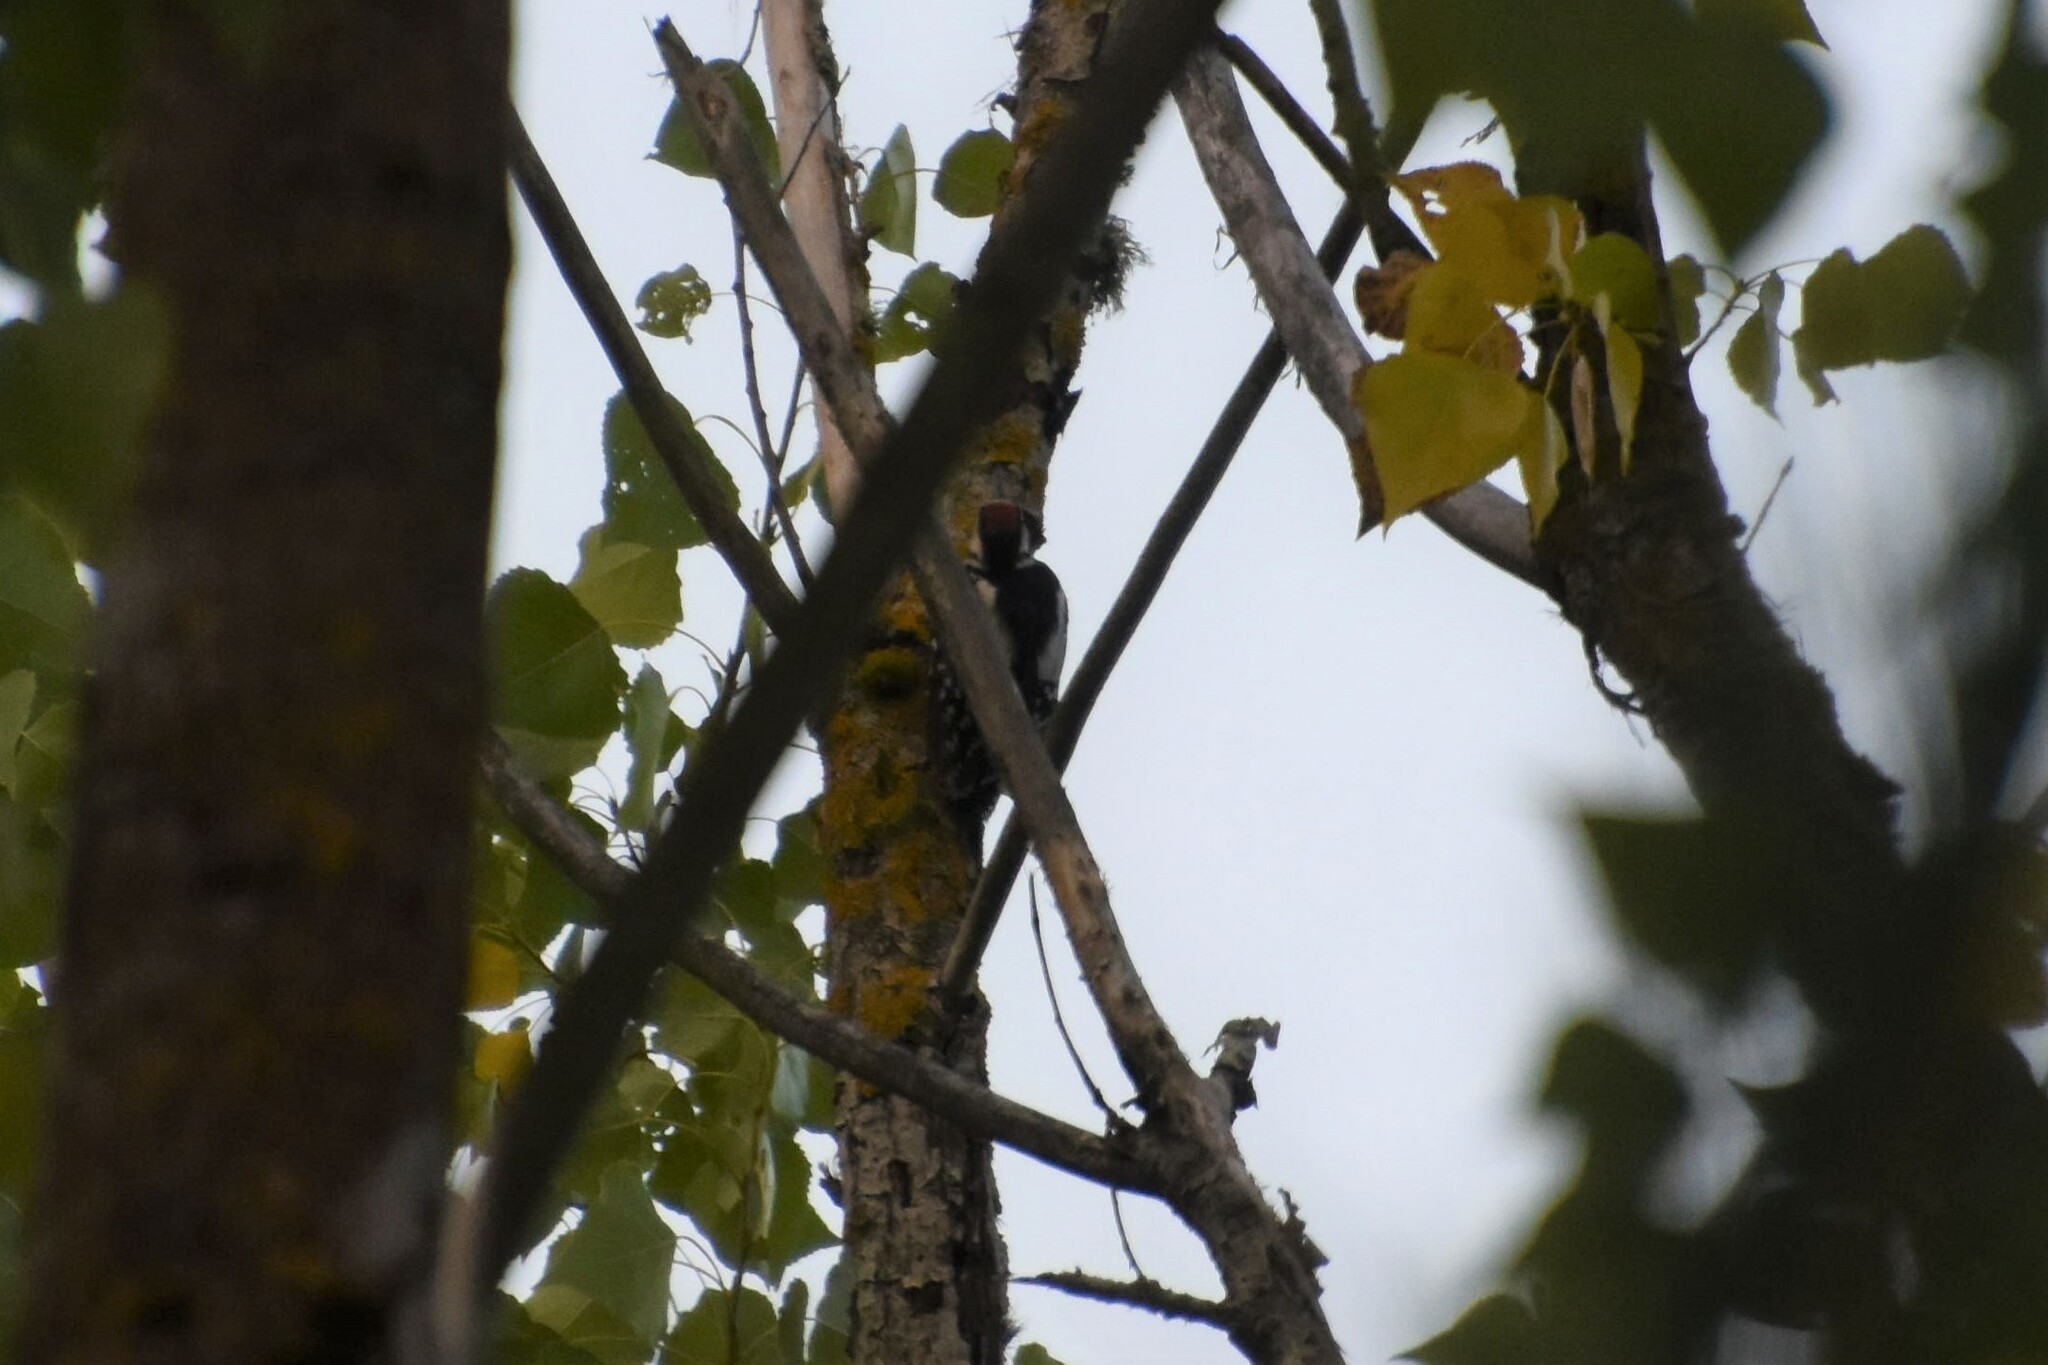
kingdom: Animalia
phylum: Chordata
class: Aves
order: Piciformes
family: Picidae
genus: Dendrocopos
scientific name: Dendrocopos major
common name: Great spotted woodpecker
